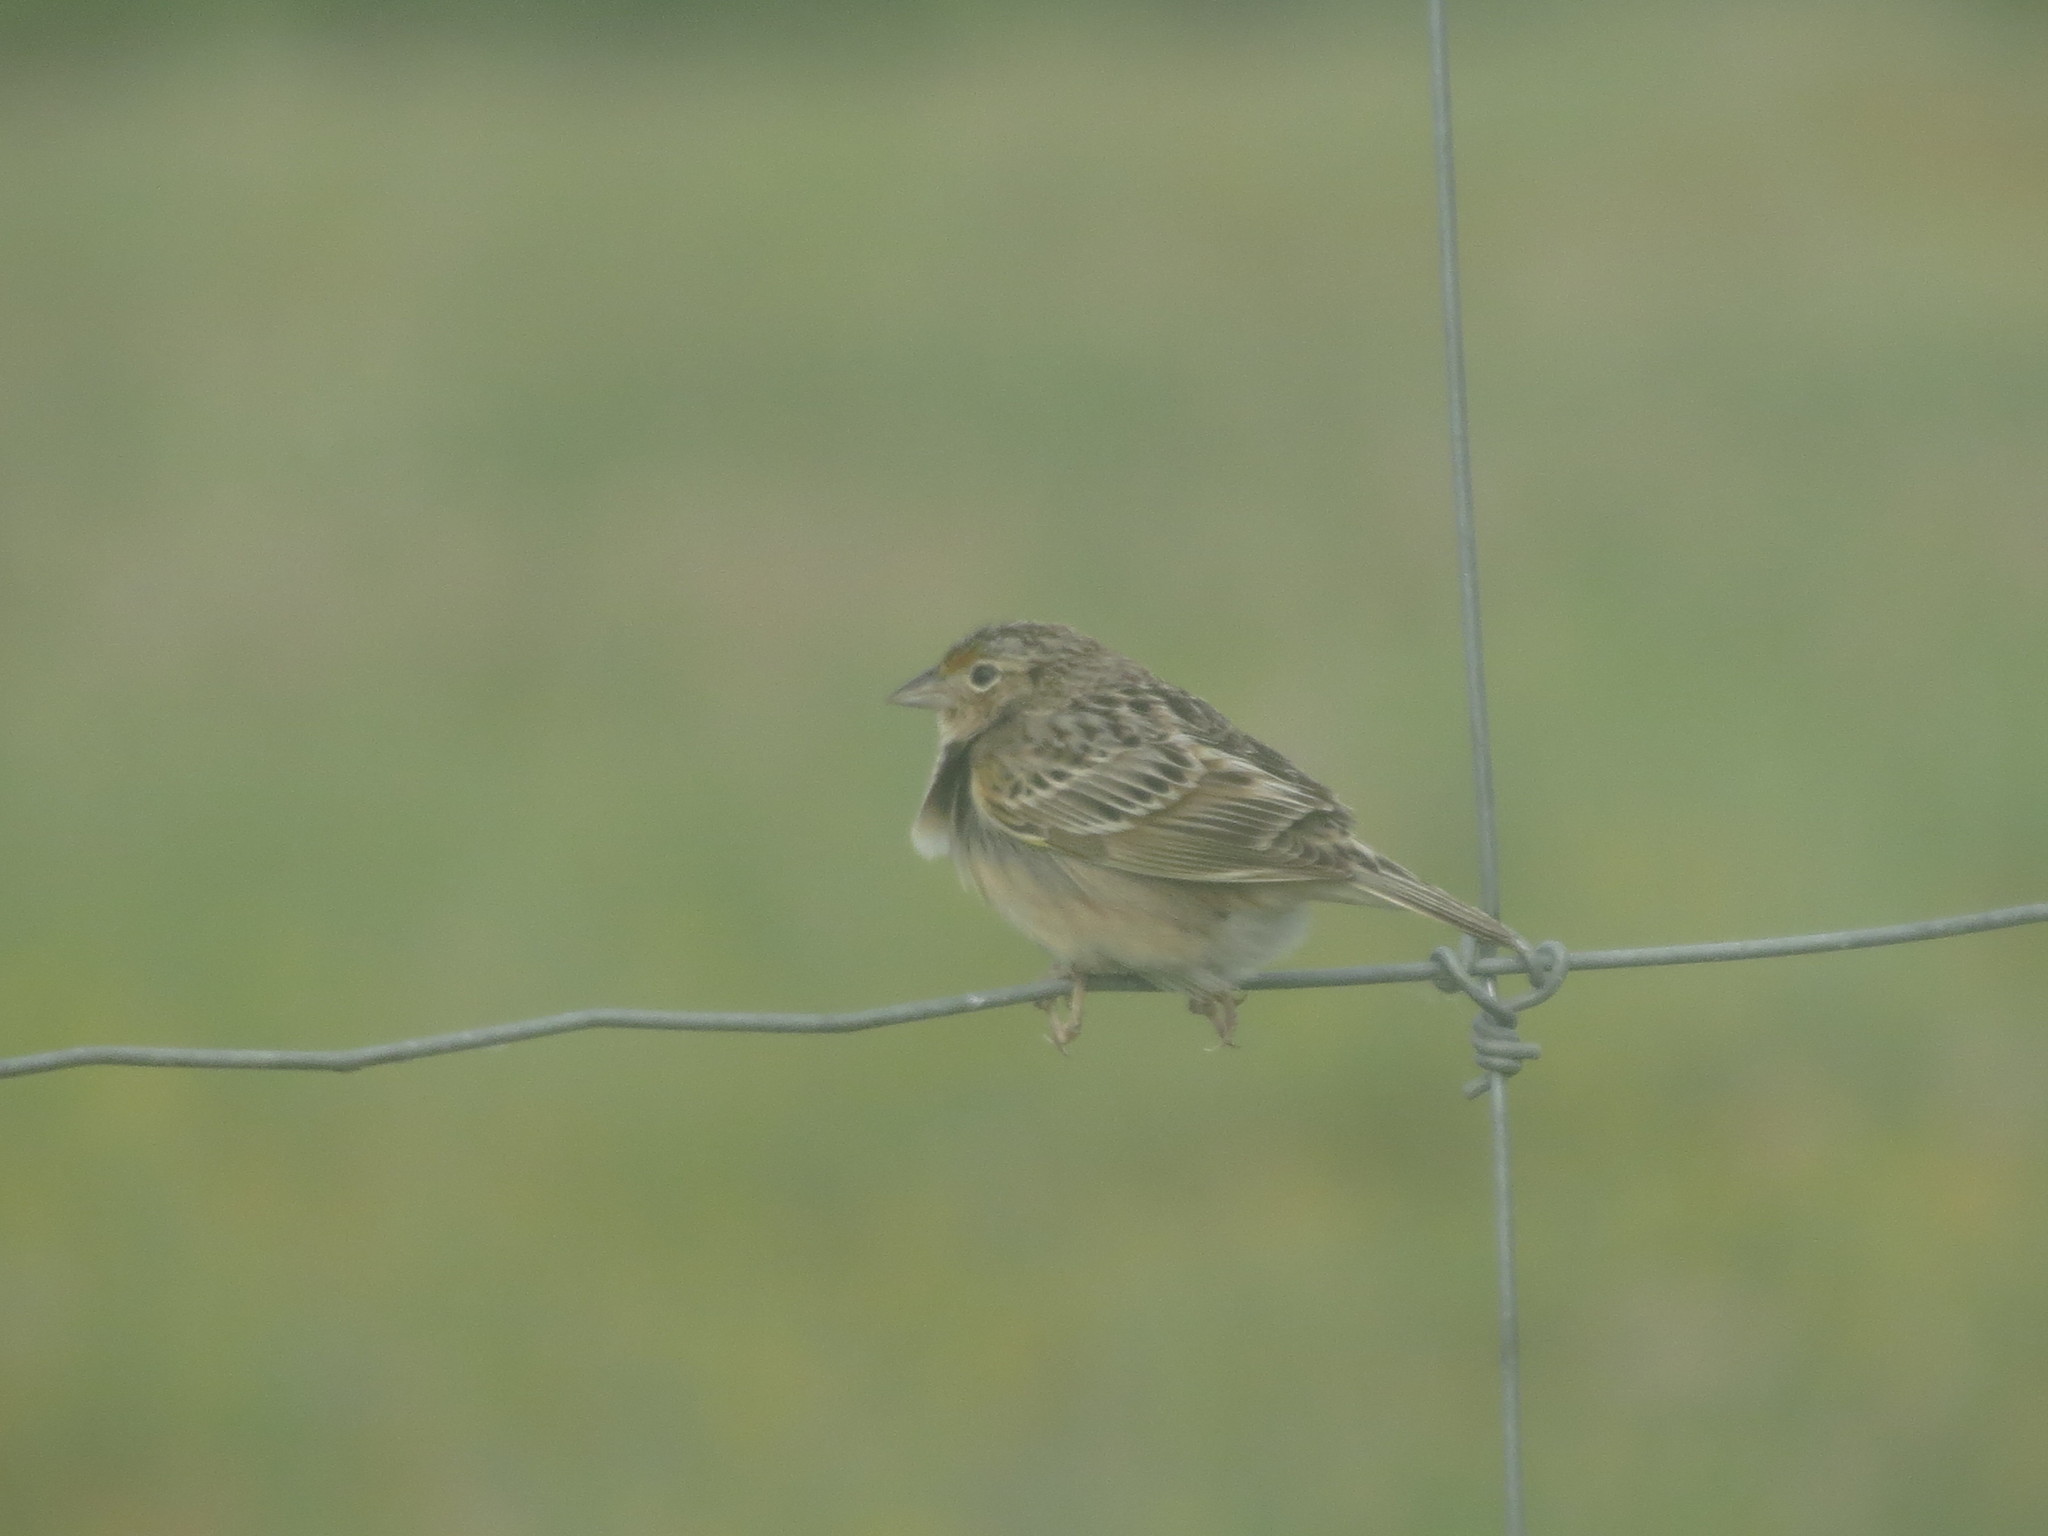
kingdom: Animalia
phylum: Chordata
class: Aves
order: Passeriformes
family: Passerellidae
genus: Ammodramus
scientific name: Ammodramus savannarum
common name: Grasshopper sparrow
